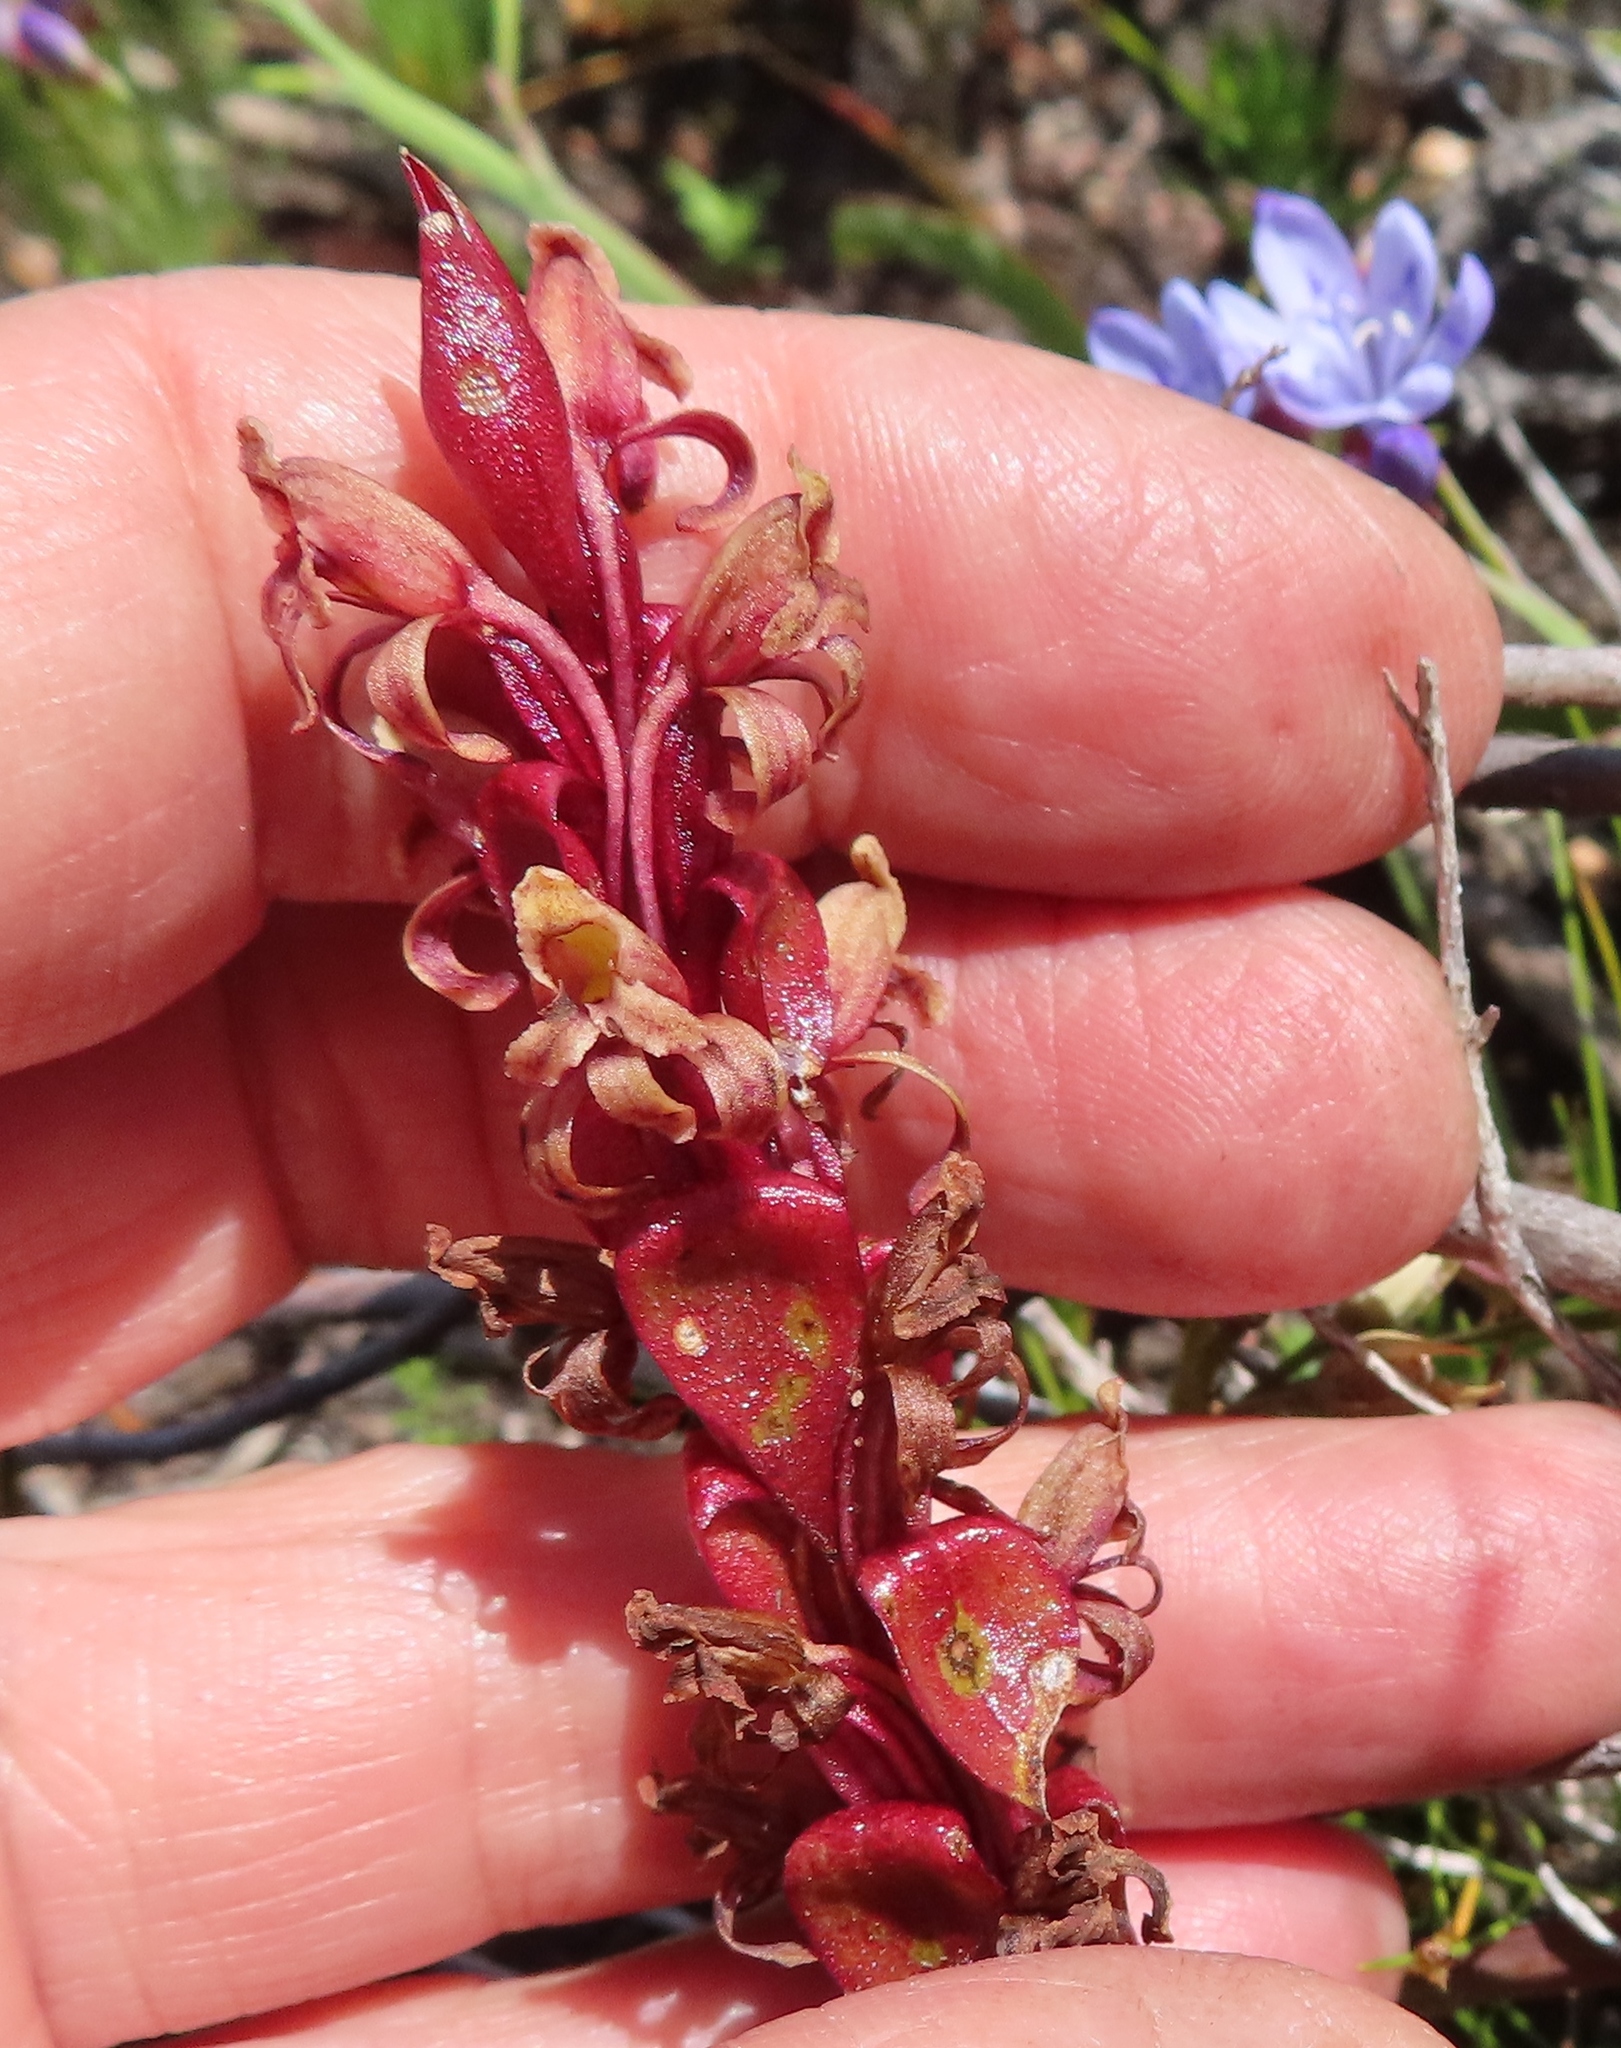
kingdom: Plantae
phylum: Tracheophyta
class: Liliopsida
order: Asparagales
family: Orchidaceae
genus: Satyrium
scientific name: Satyrium lupulinum
